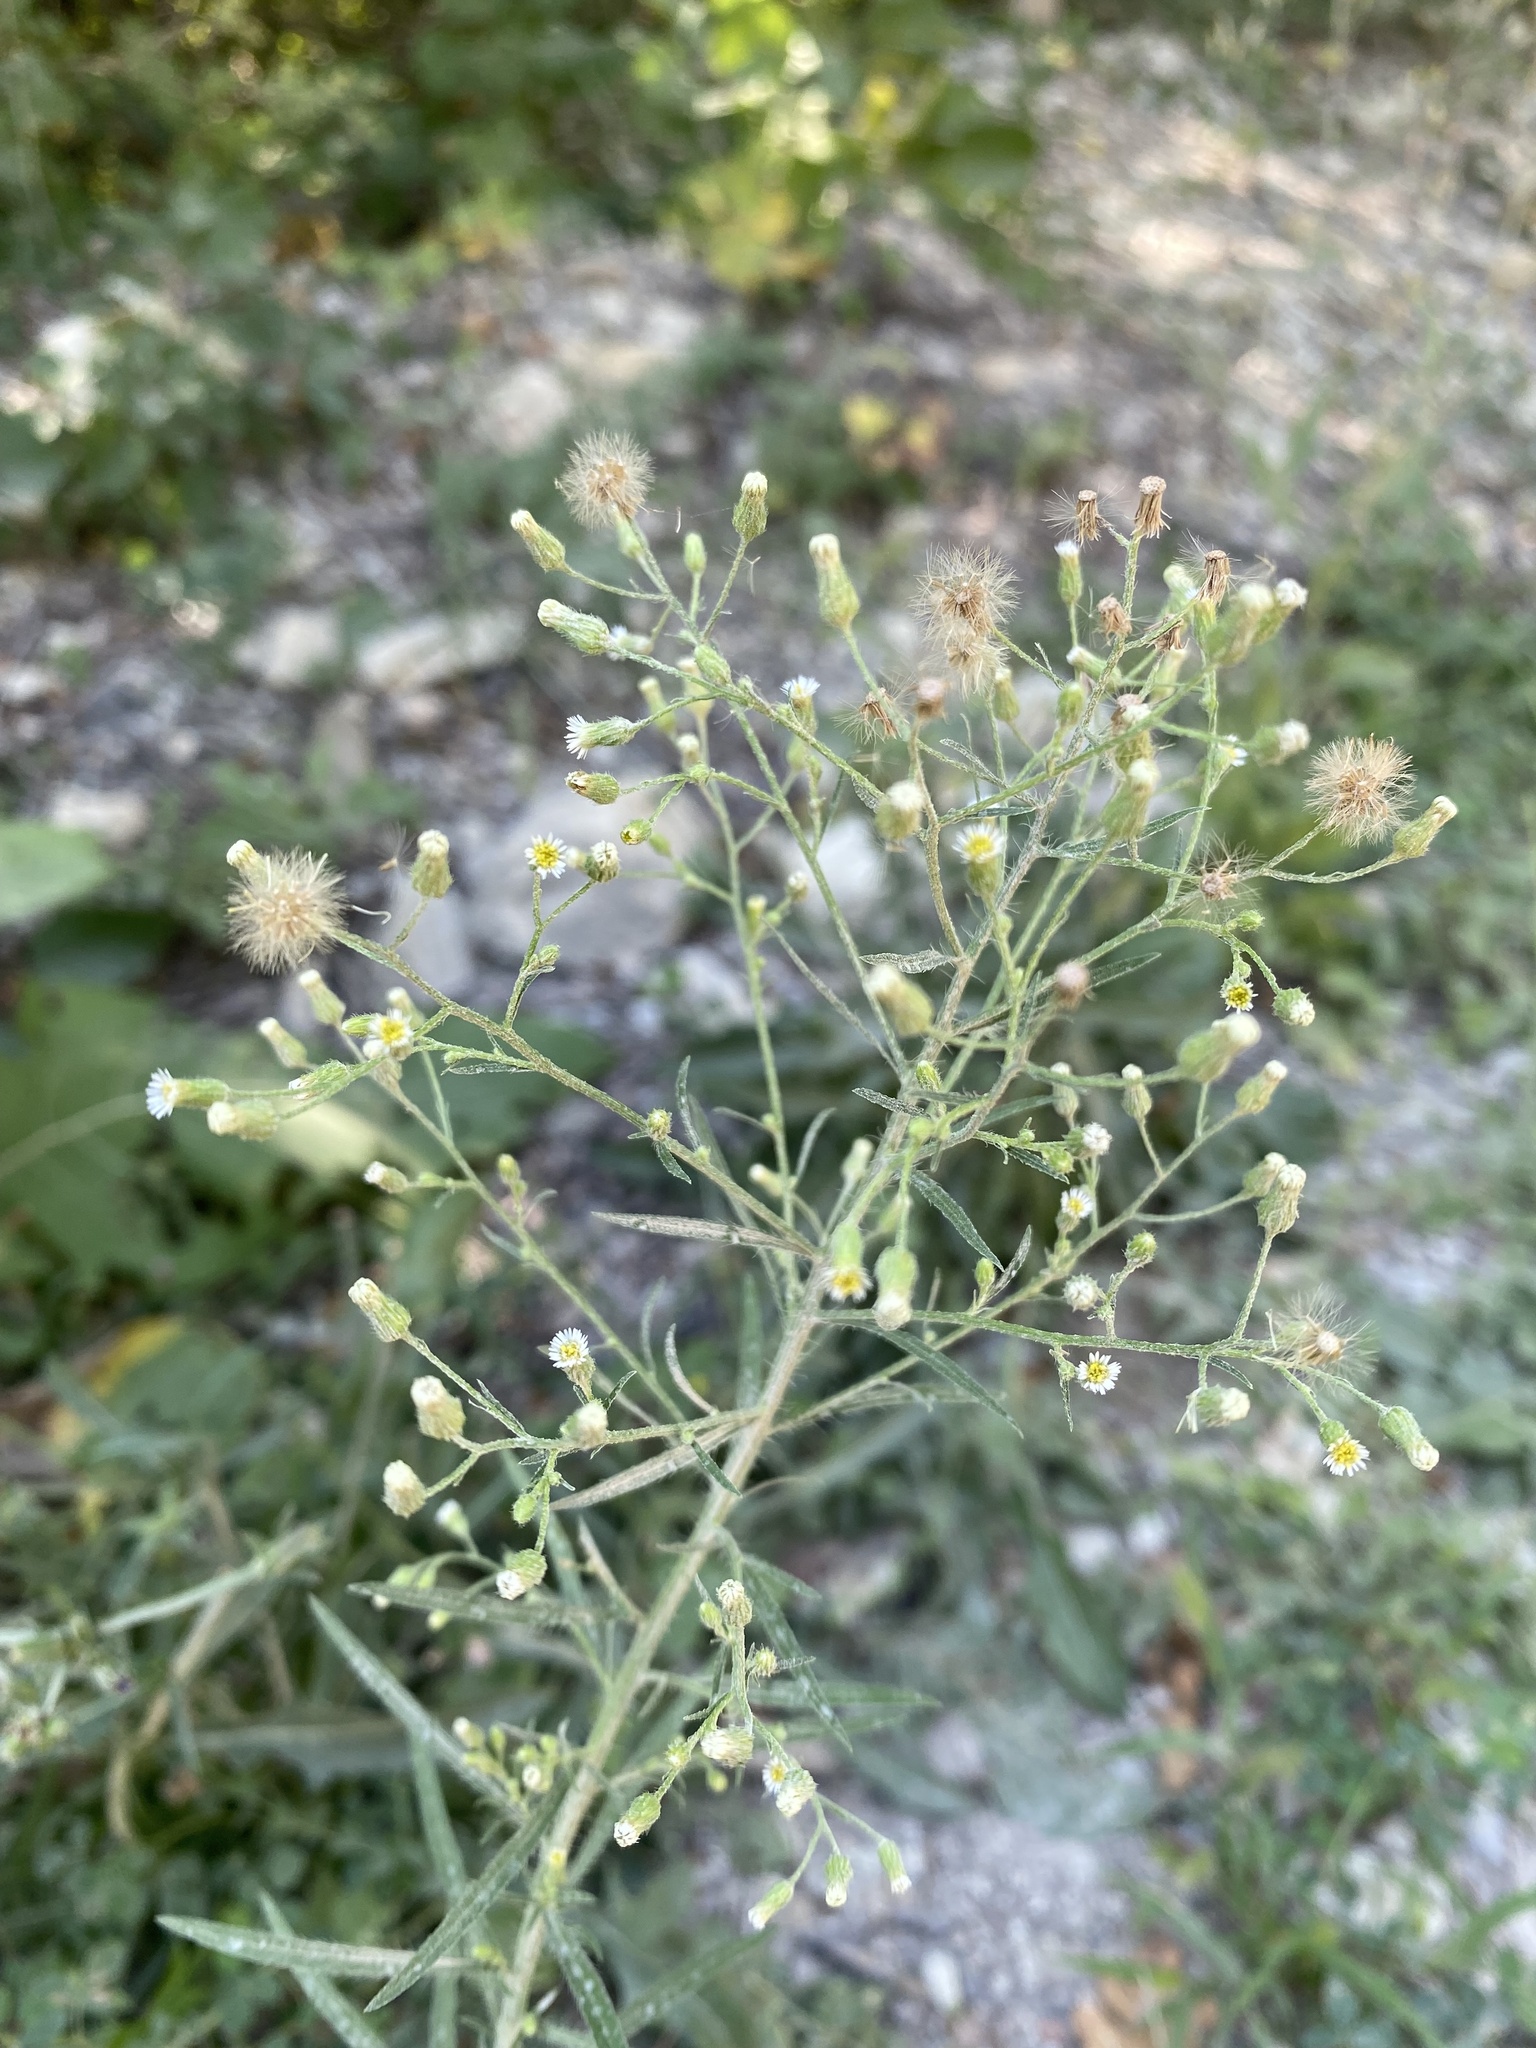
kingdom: Plantae
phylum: Tracheophyta
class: Magnoliopsida
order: Asterales
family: Asteraceae
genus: Erigeron
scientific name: Erigeron canadensis
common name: Canadian fleabane
